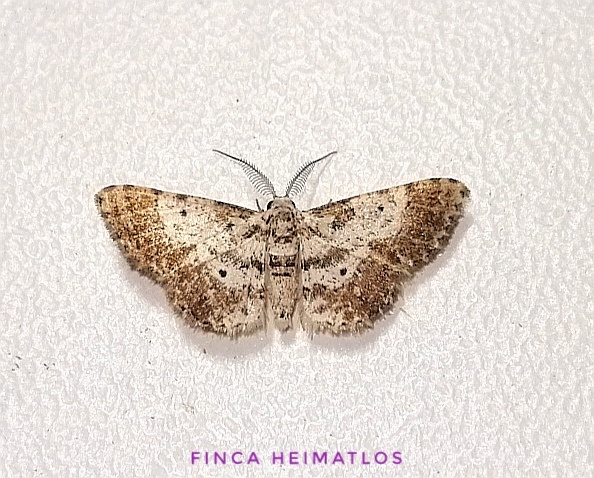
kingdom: Animalia
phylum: Arthropoda
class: Insecta
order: Lepidoptera
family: Geometridae
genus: Physocleora
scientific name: Physocleora albibrunnea
